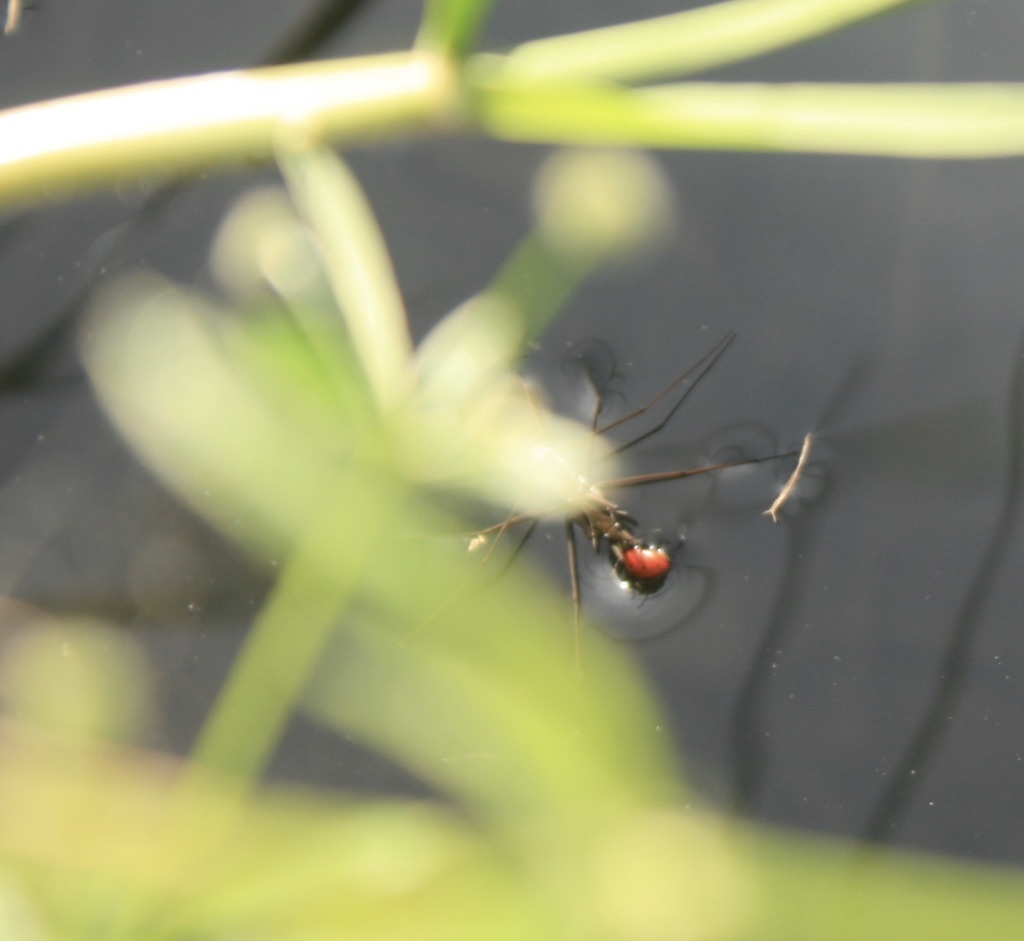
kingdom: Animalia
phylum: Arthropoda
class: Insecta
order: Hemiptera
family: Gerridae
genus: Aquarius
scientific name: Aquarius remigis
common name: Common water strider
